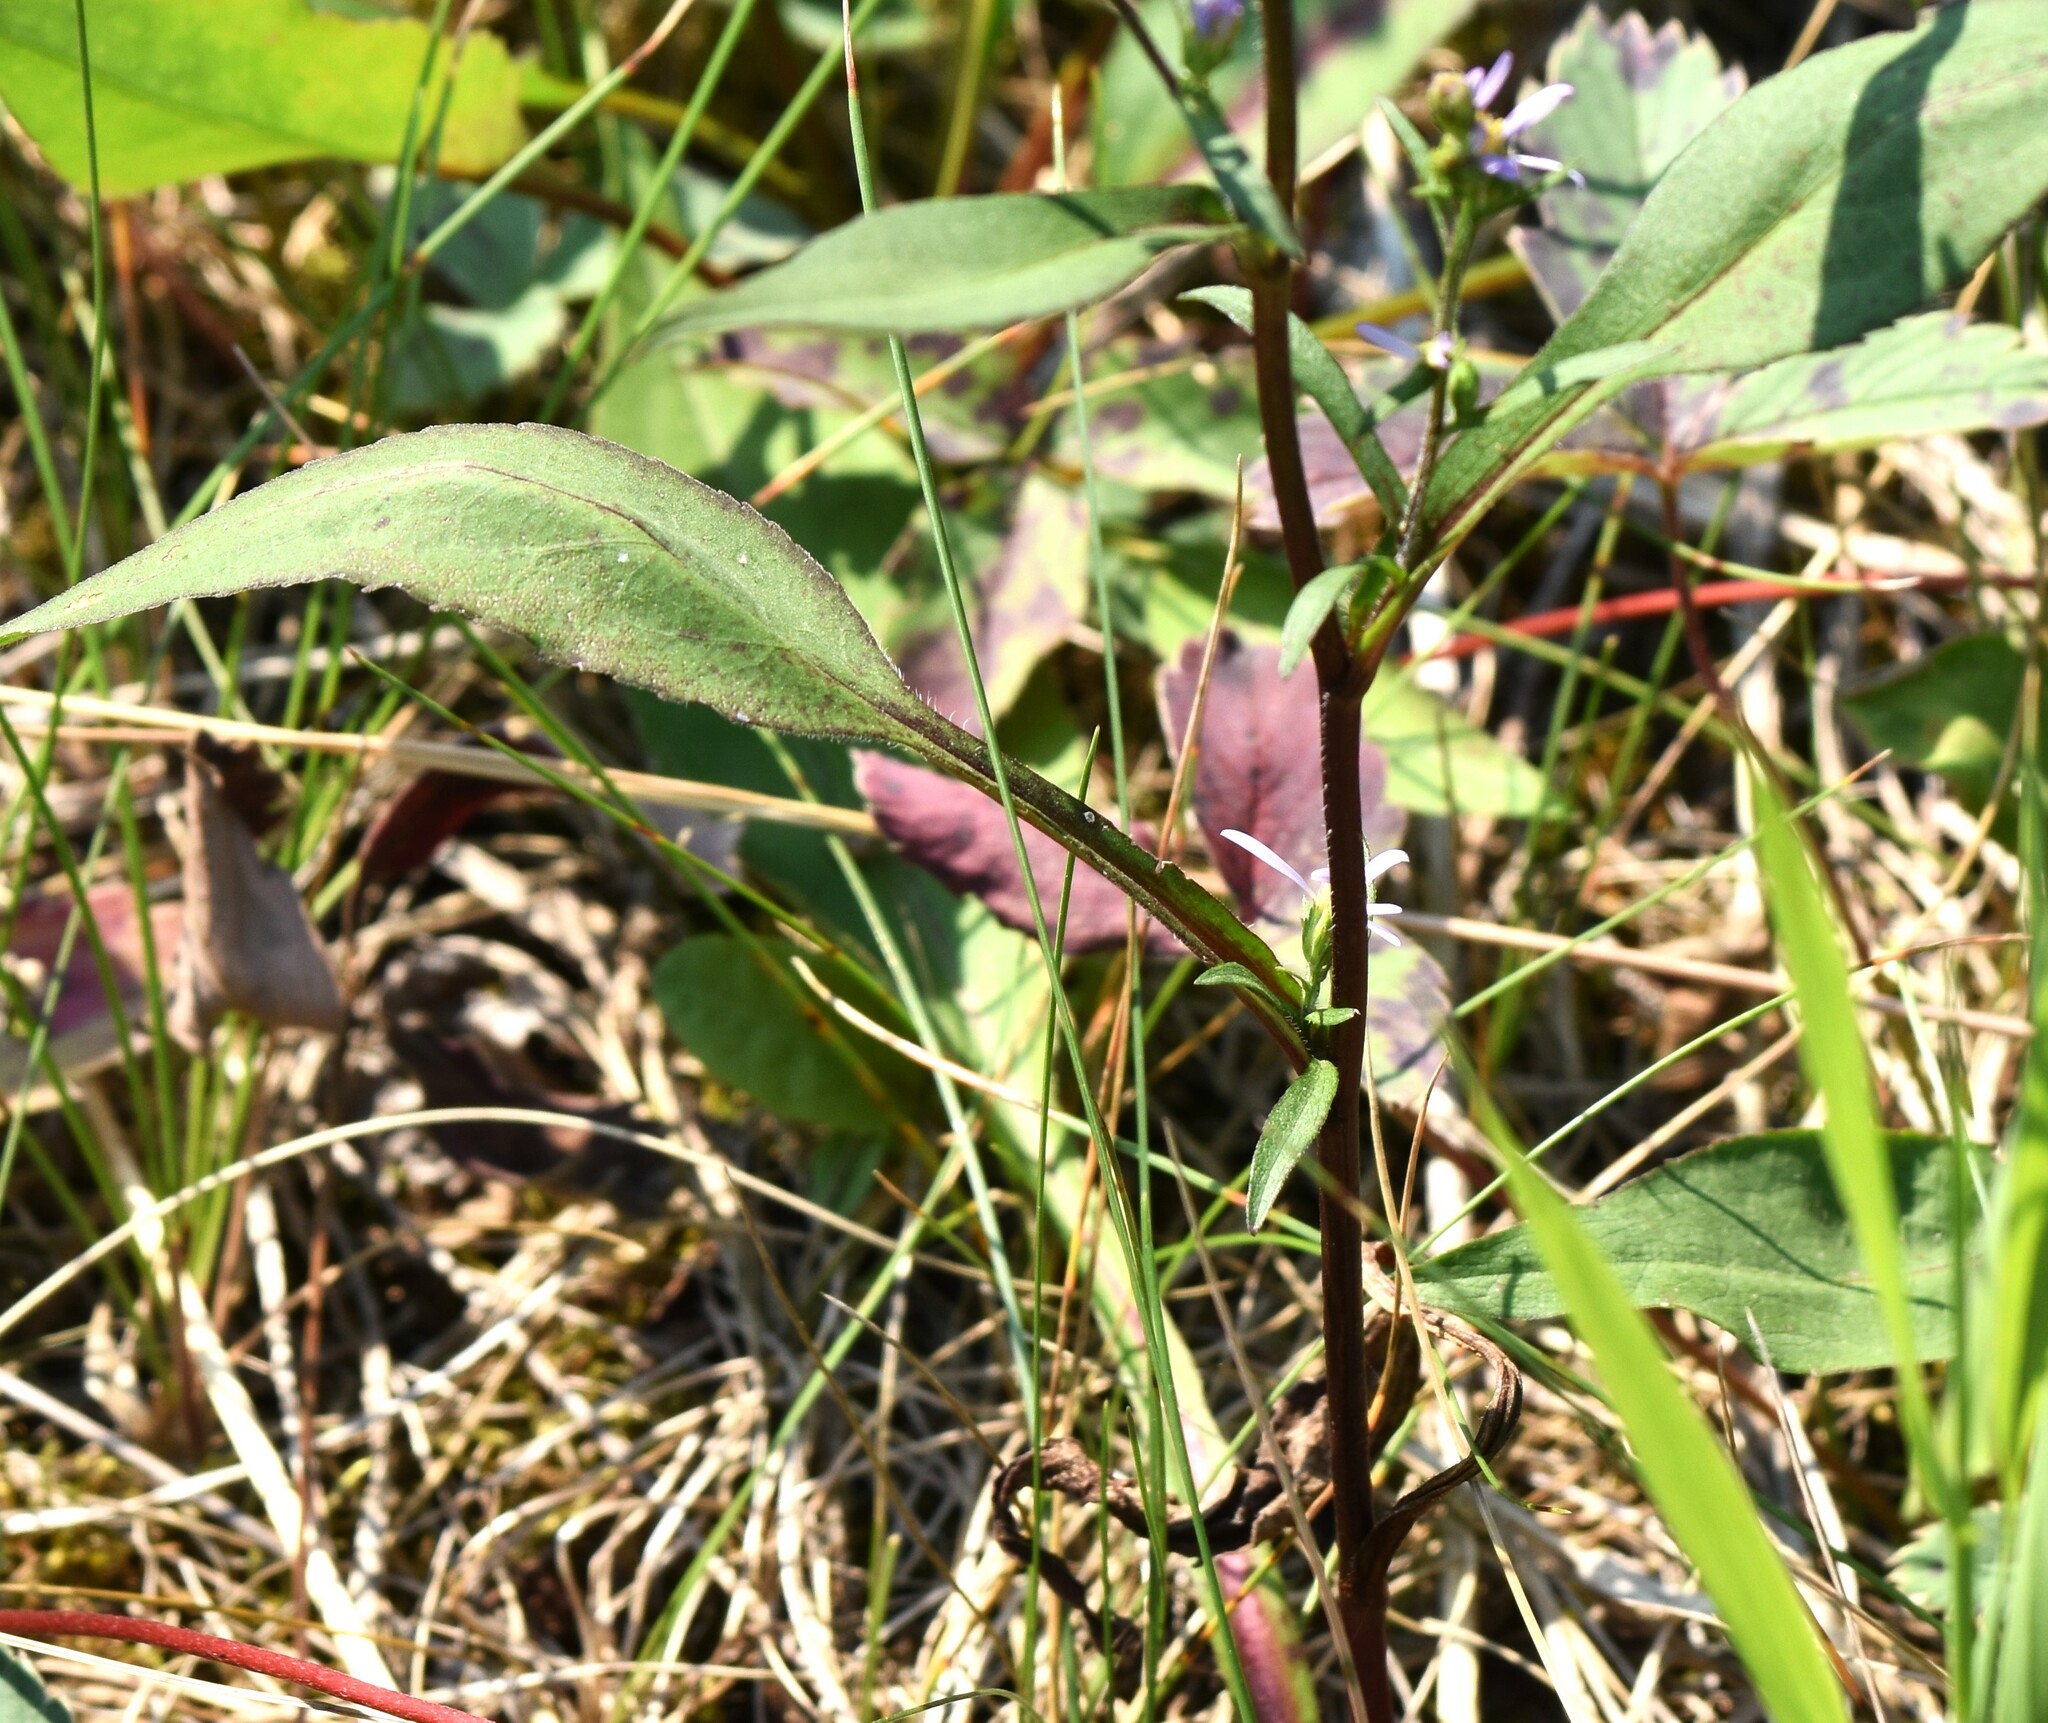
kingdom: Plantae
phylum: Tracheophyta
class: Magnoliopsida
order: Asterales
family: Asteraceae
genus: Symphyotrichum
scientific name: Symphyotrichum ciliolatum
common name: Fringed blue aster
